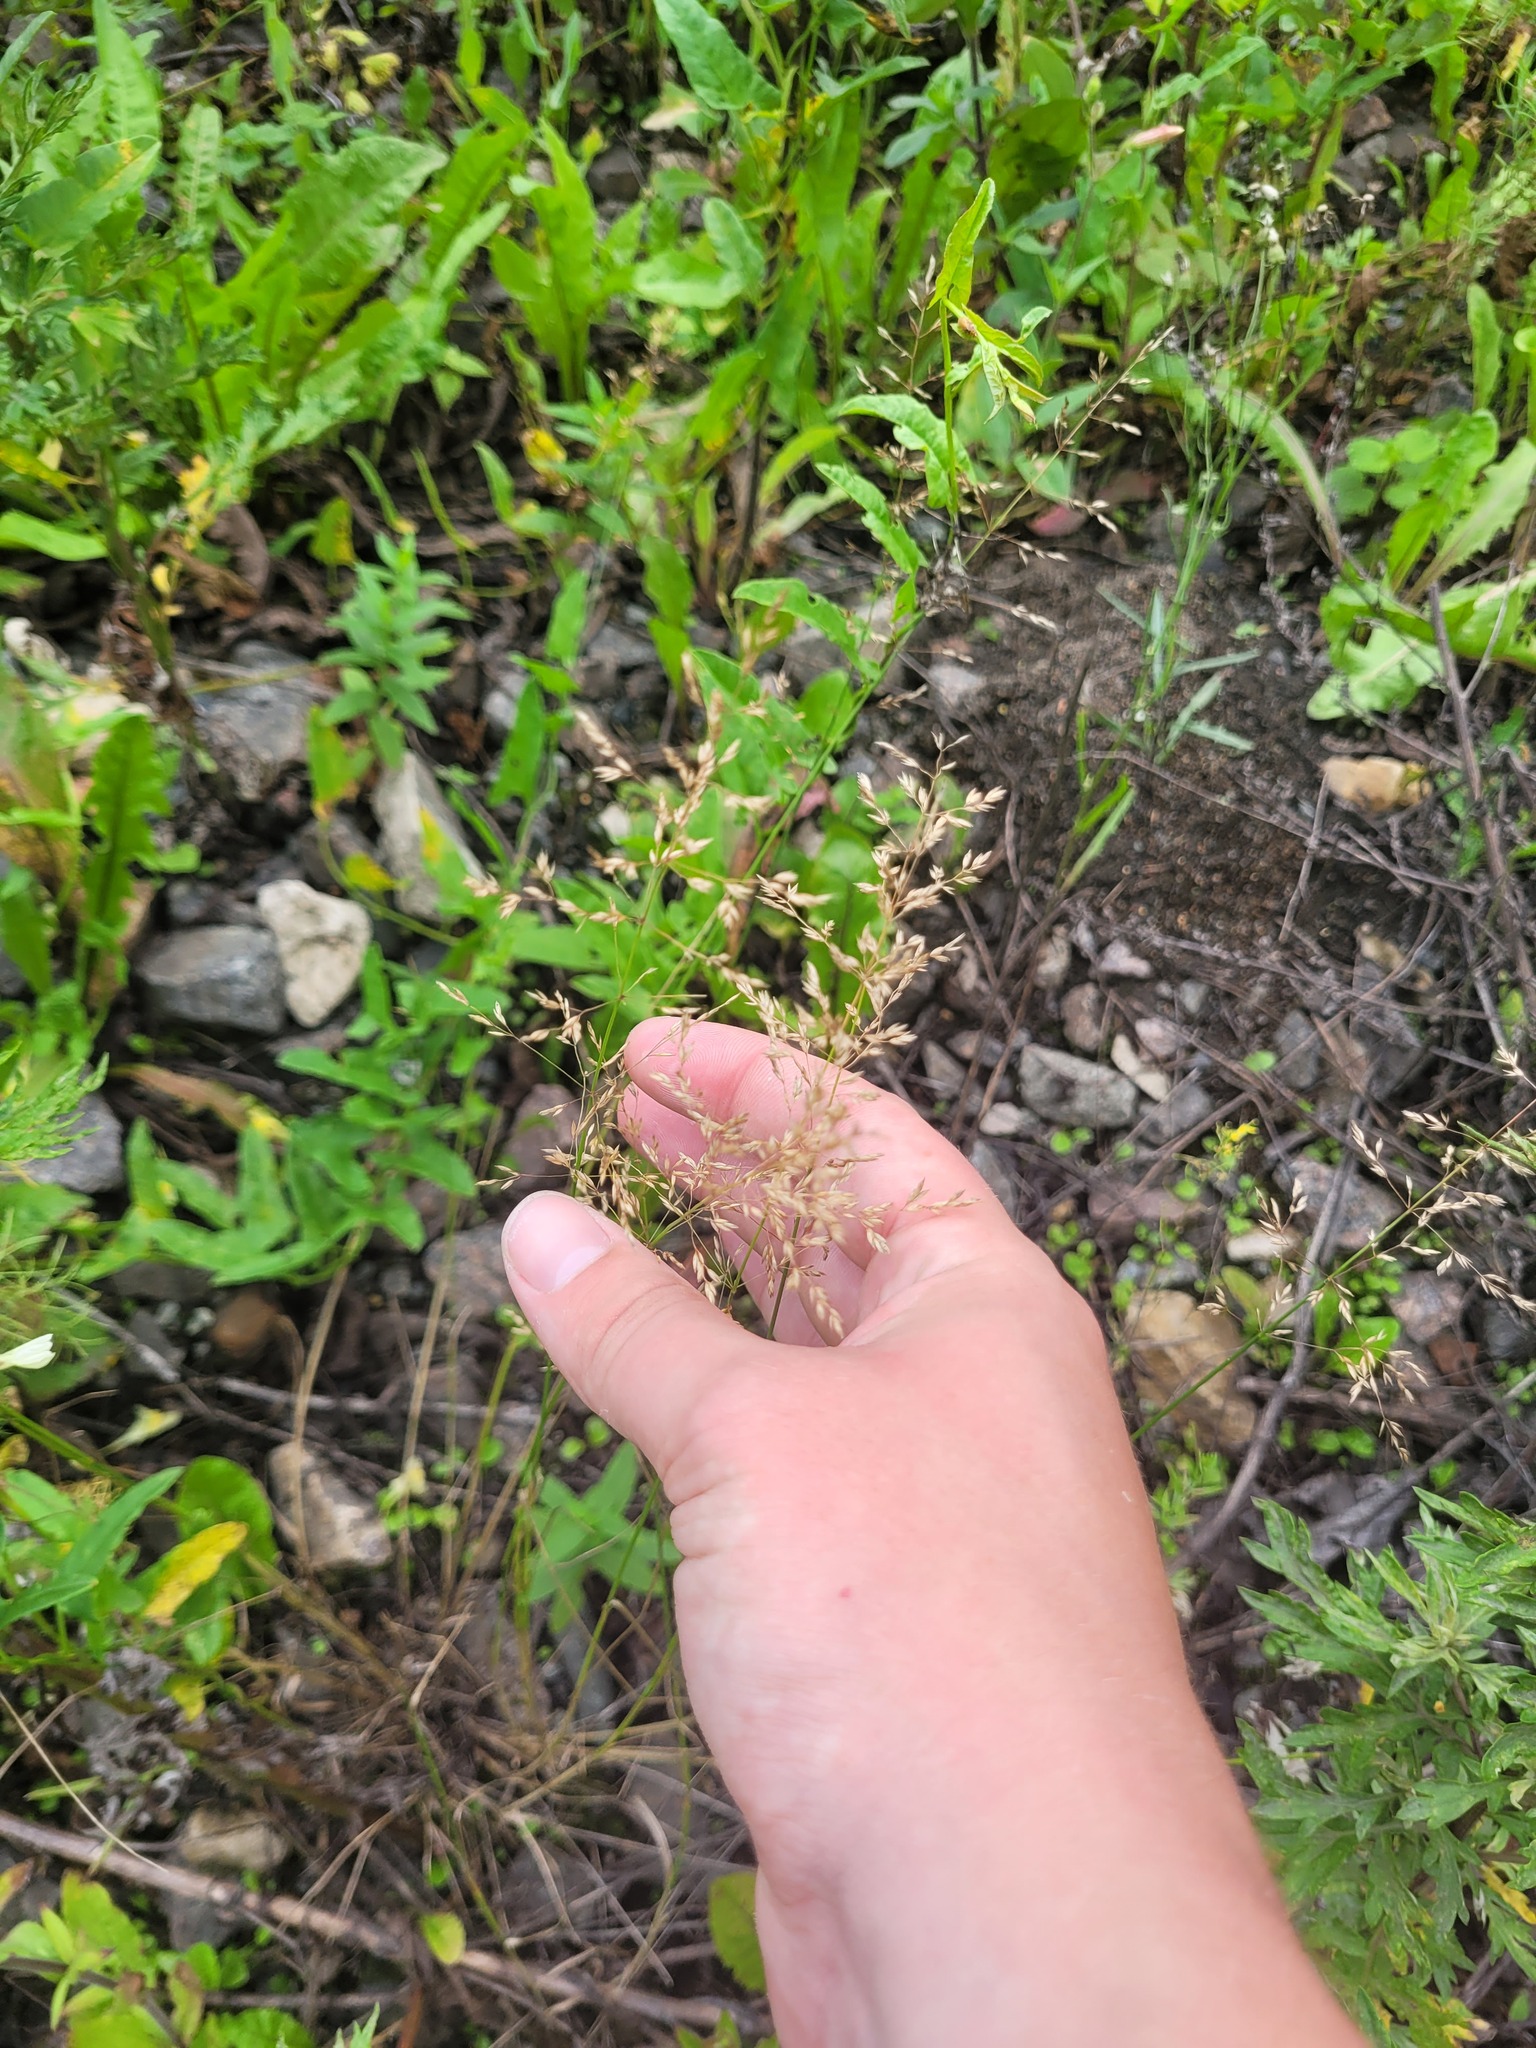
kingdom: Plantae
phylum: Tracheophyta
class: Liliopsida
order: Poales
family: Poaceae
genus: Poa
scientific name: Poa palustris
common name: Swamp meadow-grass
